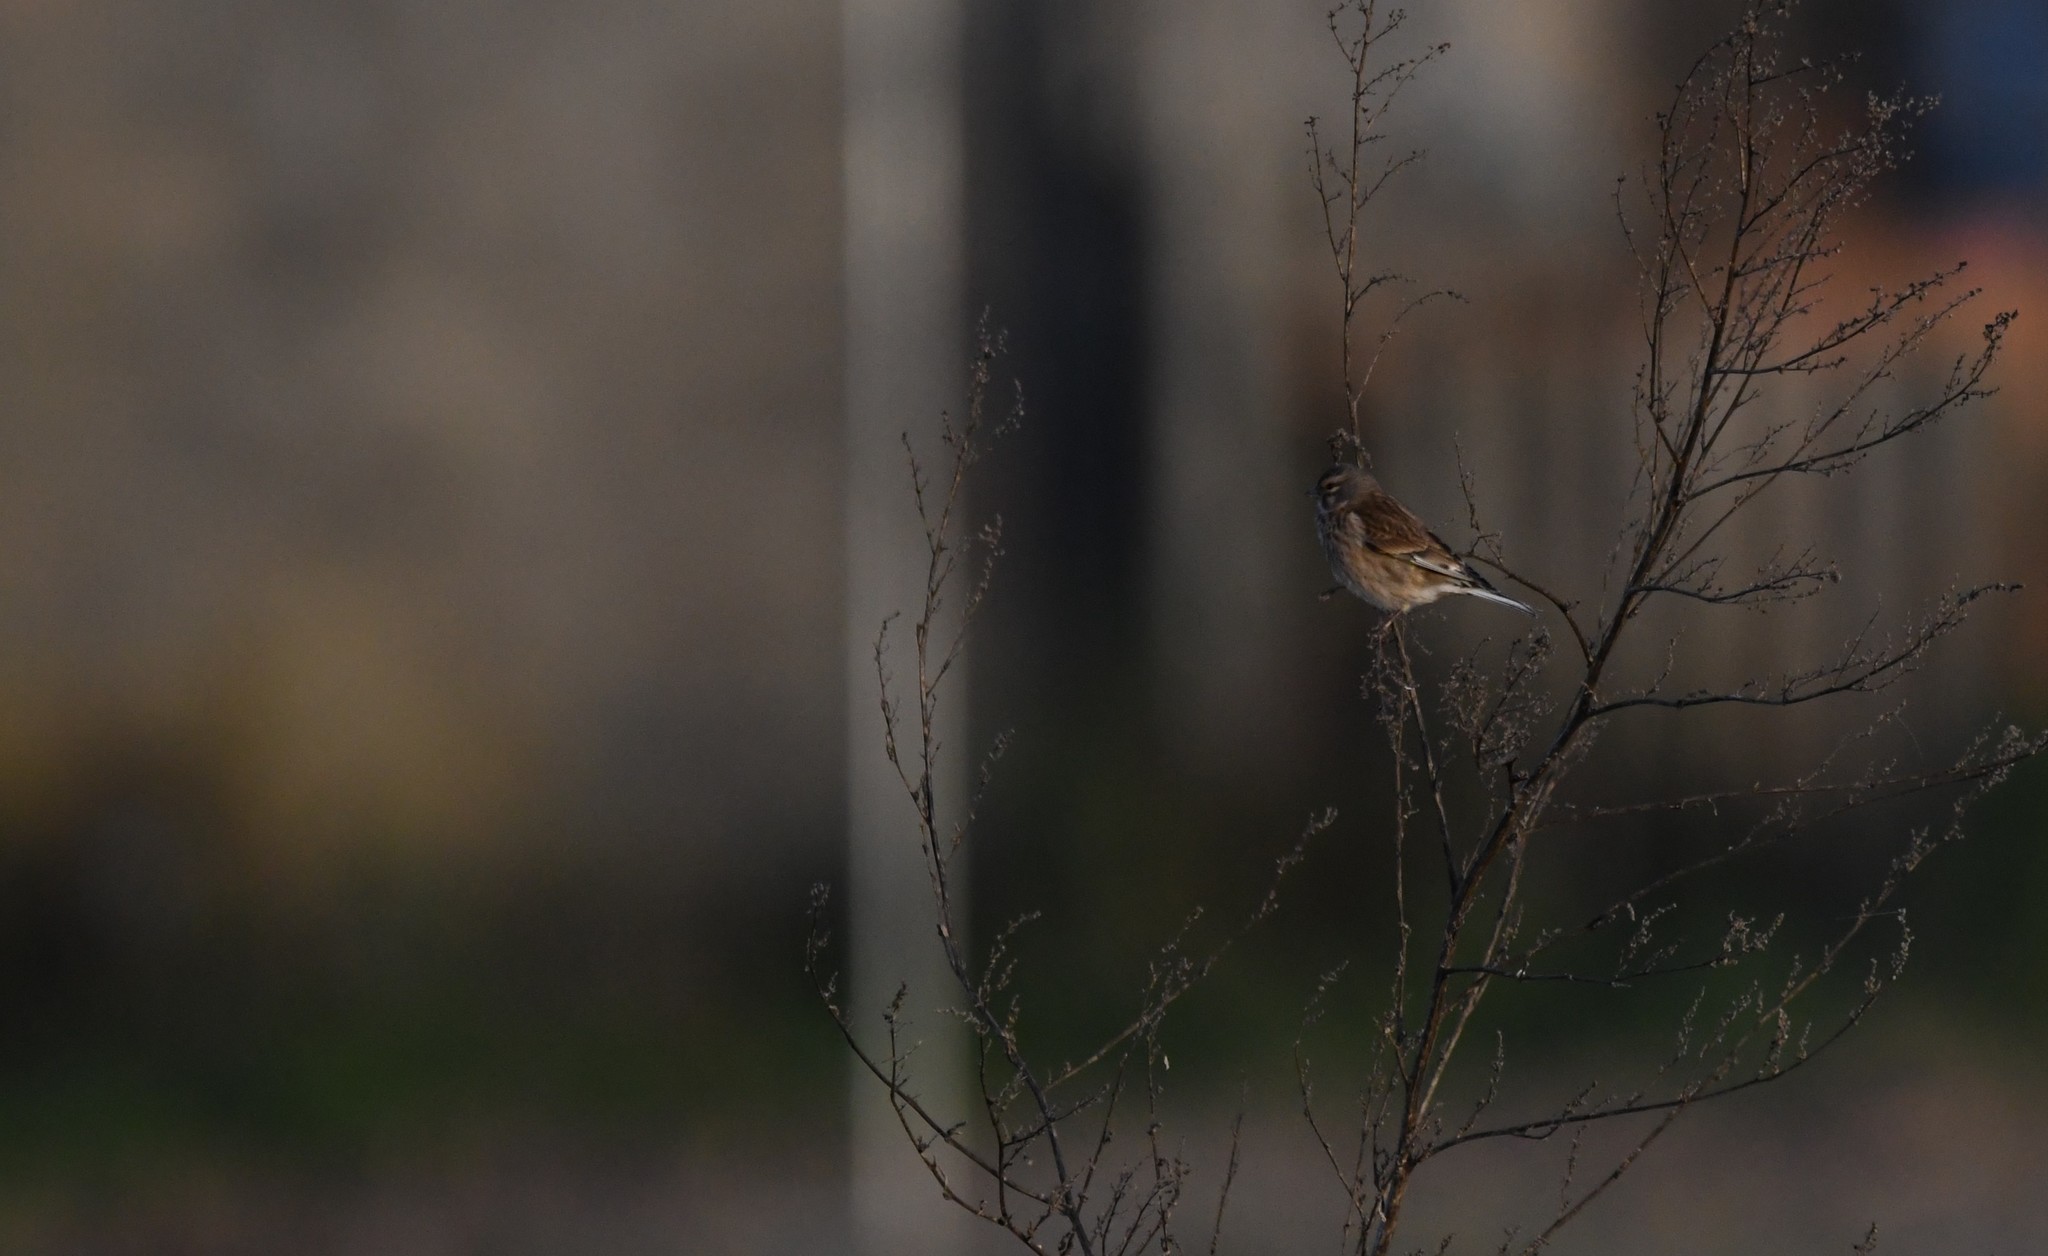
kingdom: Animalia
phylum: Chordata
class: Aves
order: Passeriformes
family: Fringillidae
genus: Linaria
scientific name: Linaria cannabina
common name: Common linnet
